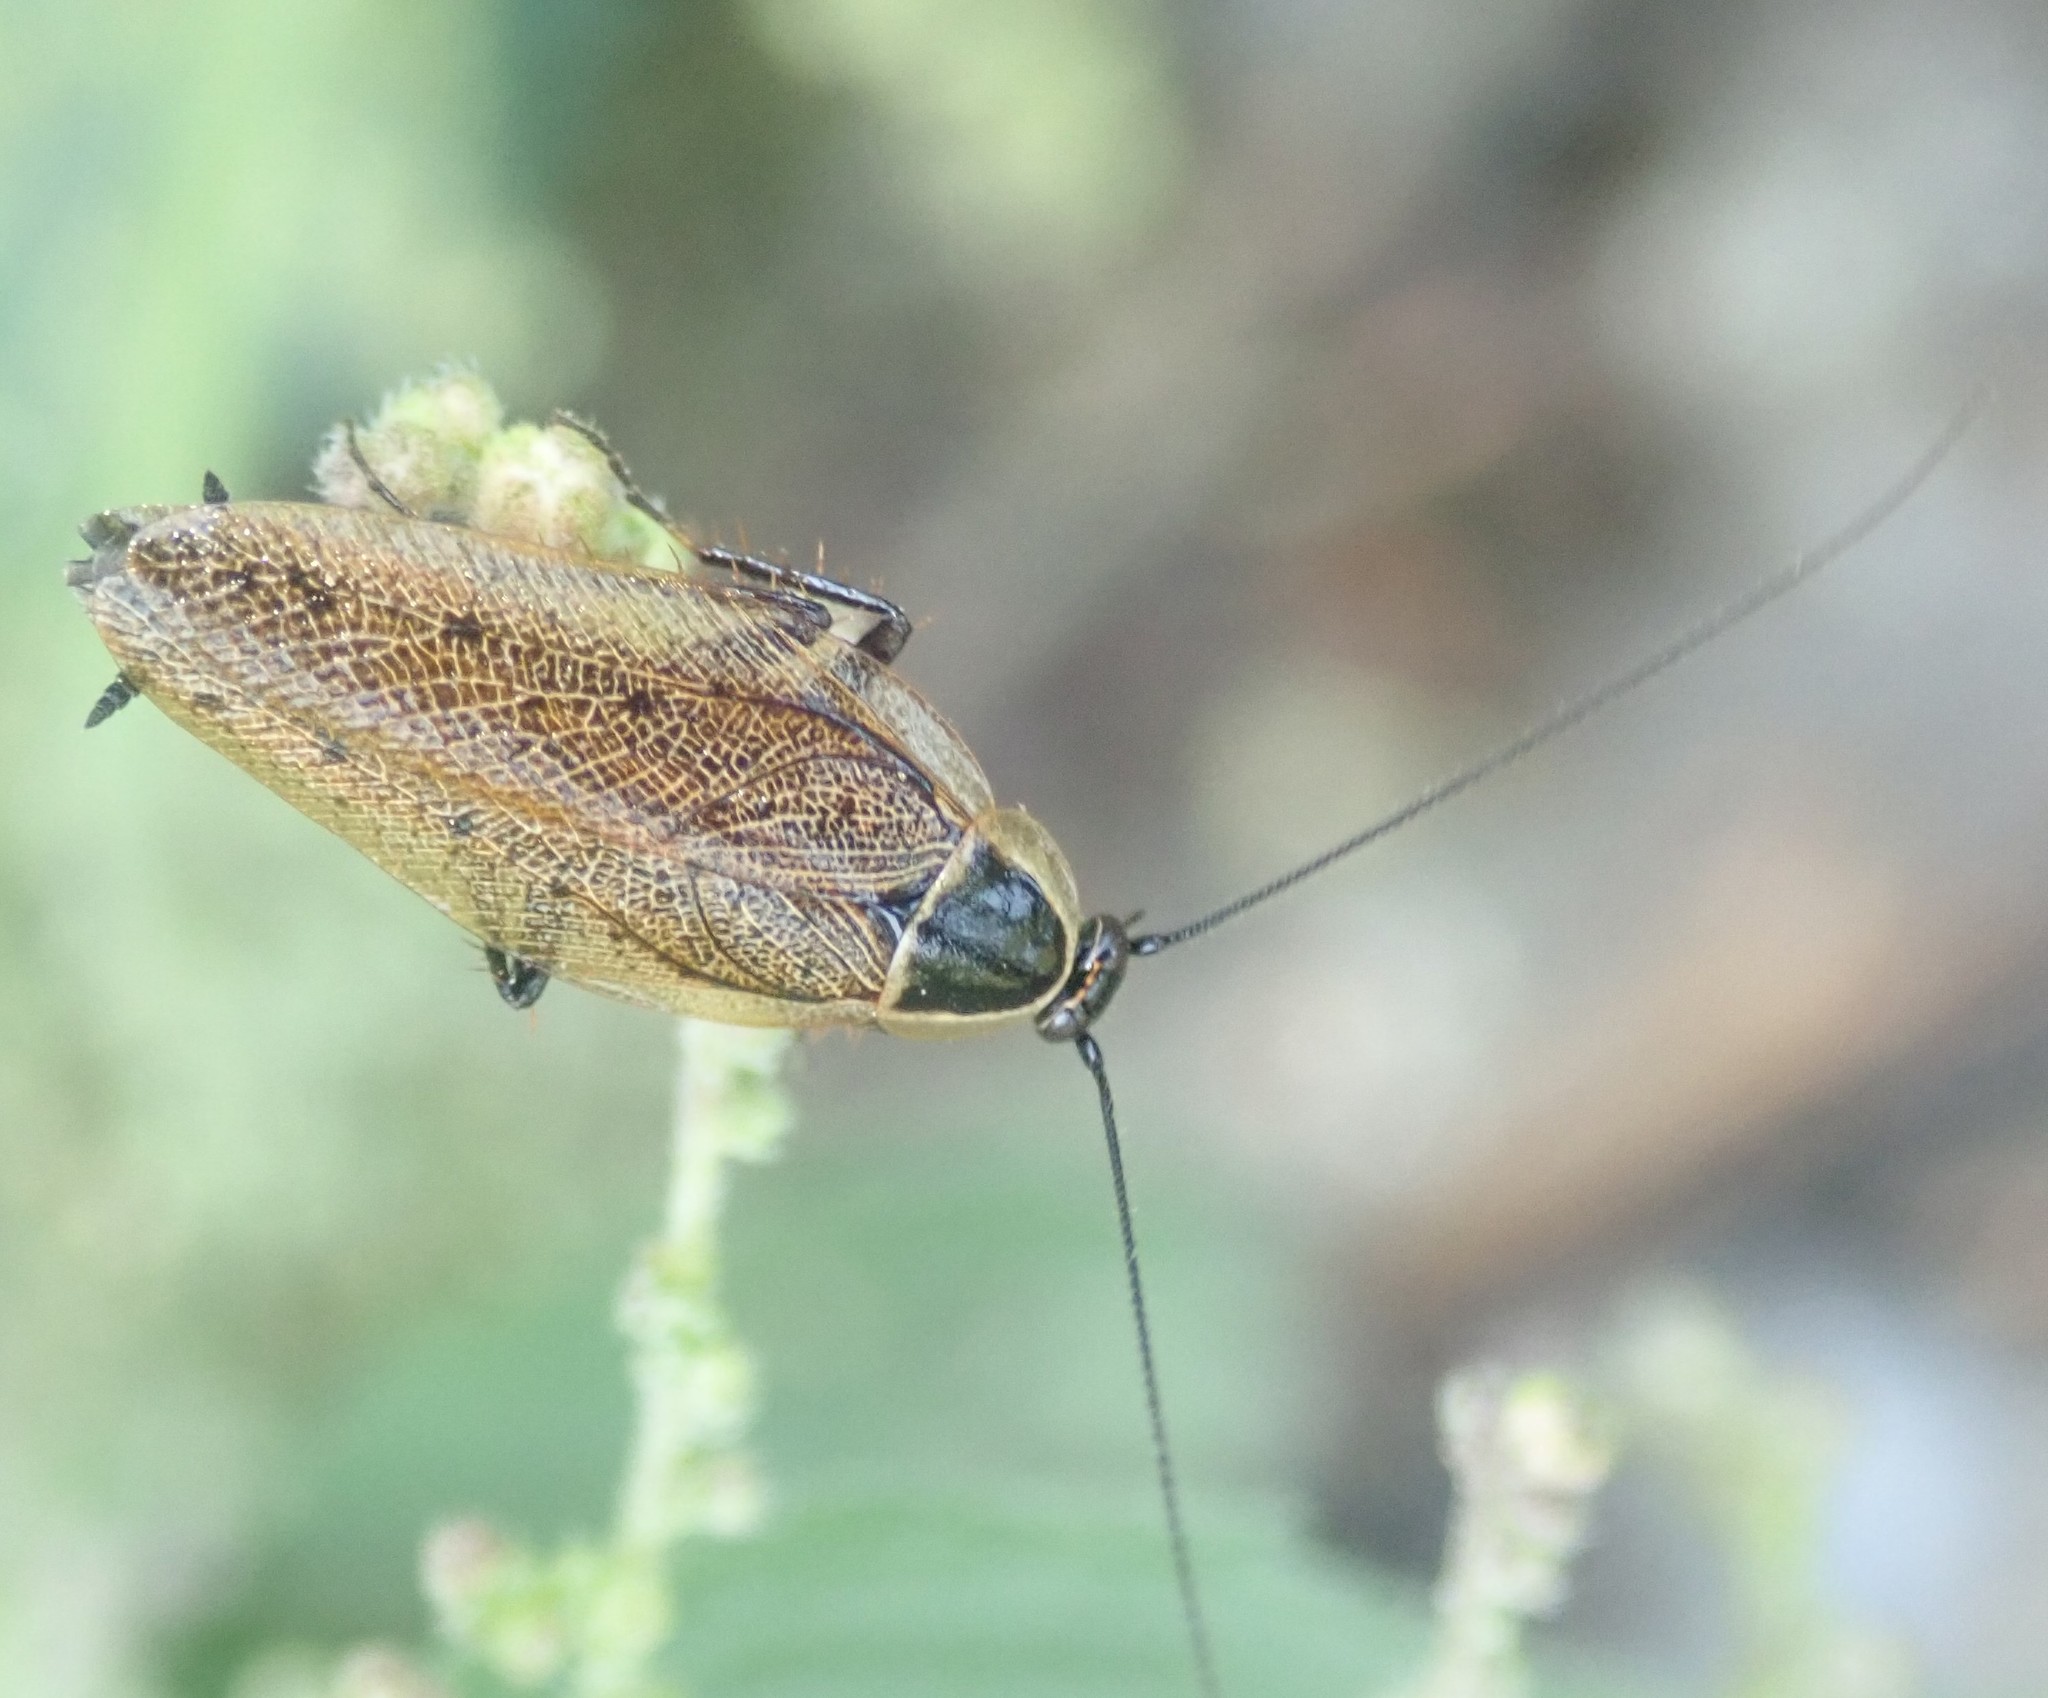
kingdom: Animalia
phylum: Arthropoda
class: Insecta
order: Blattodea
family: Ectobiidae
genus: Ectobius
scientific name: Ectobius sylvestris
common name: Forest cockroach
